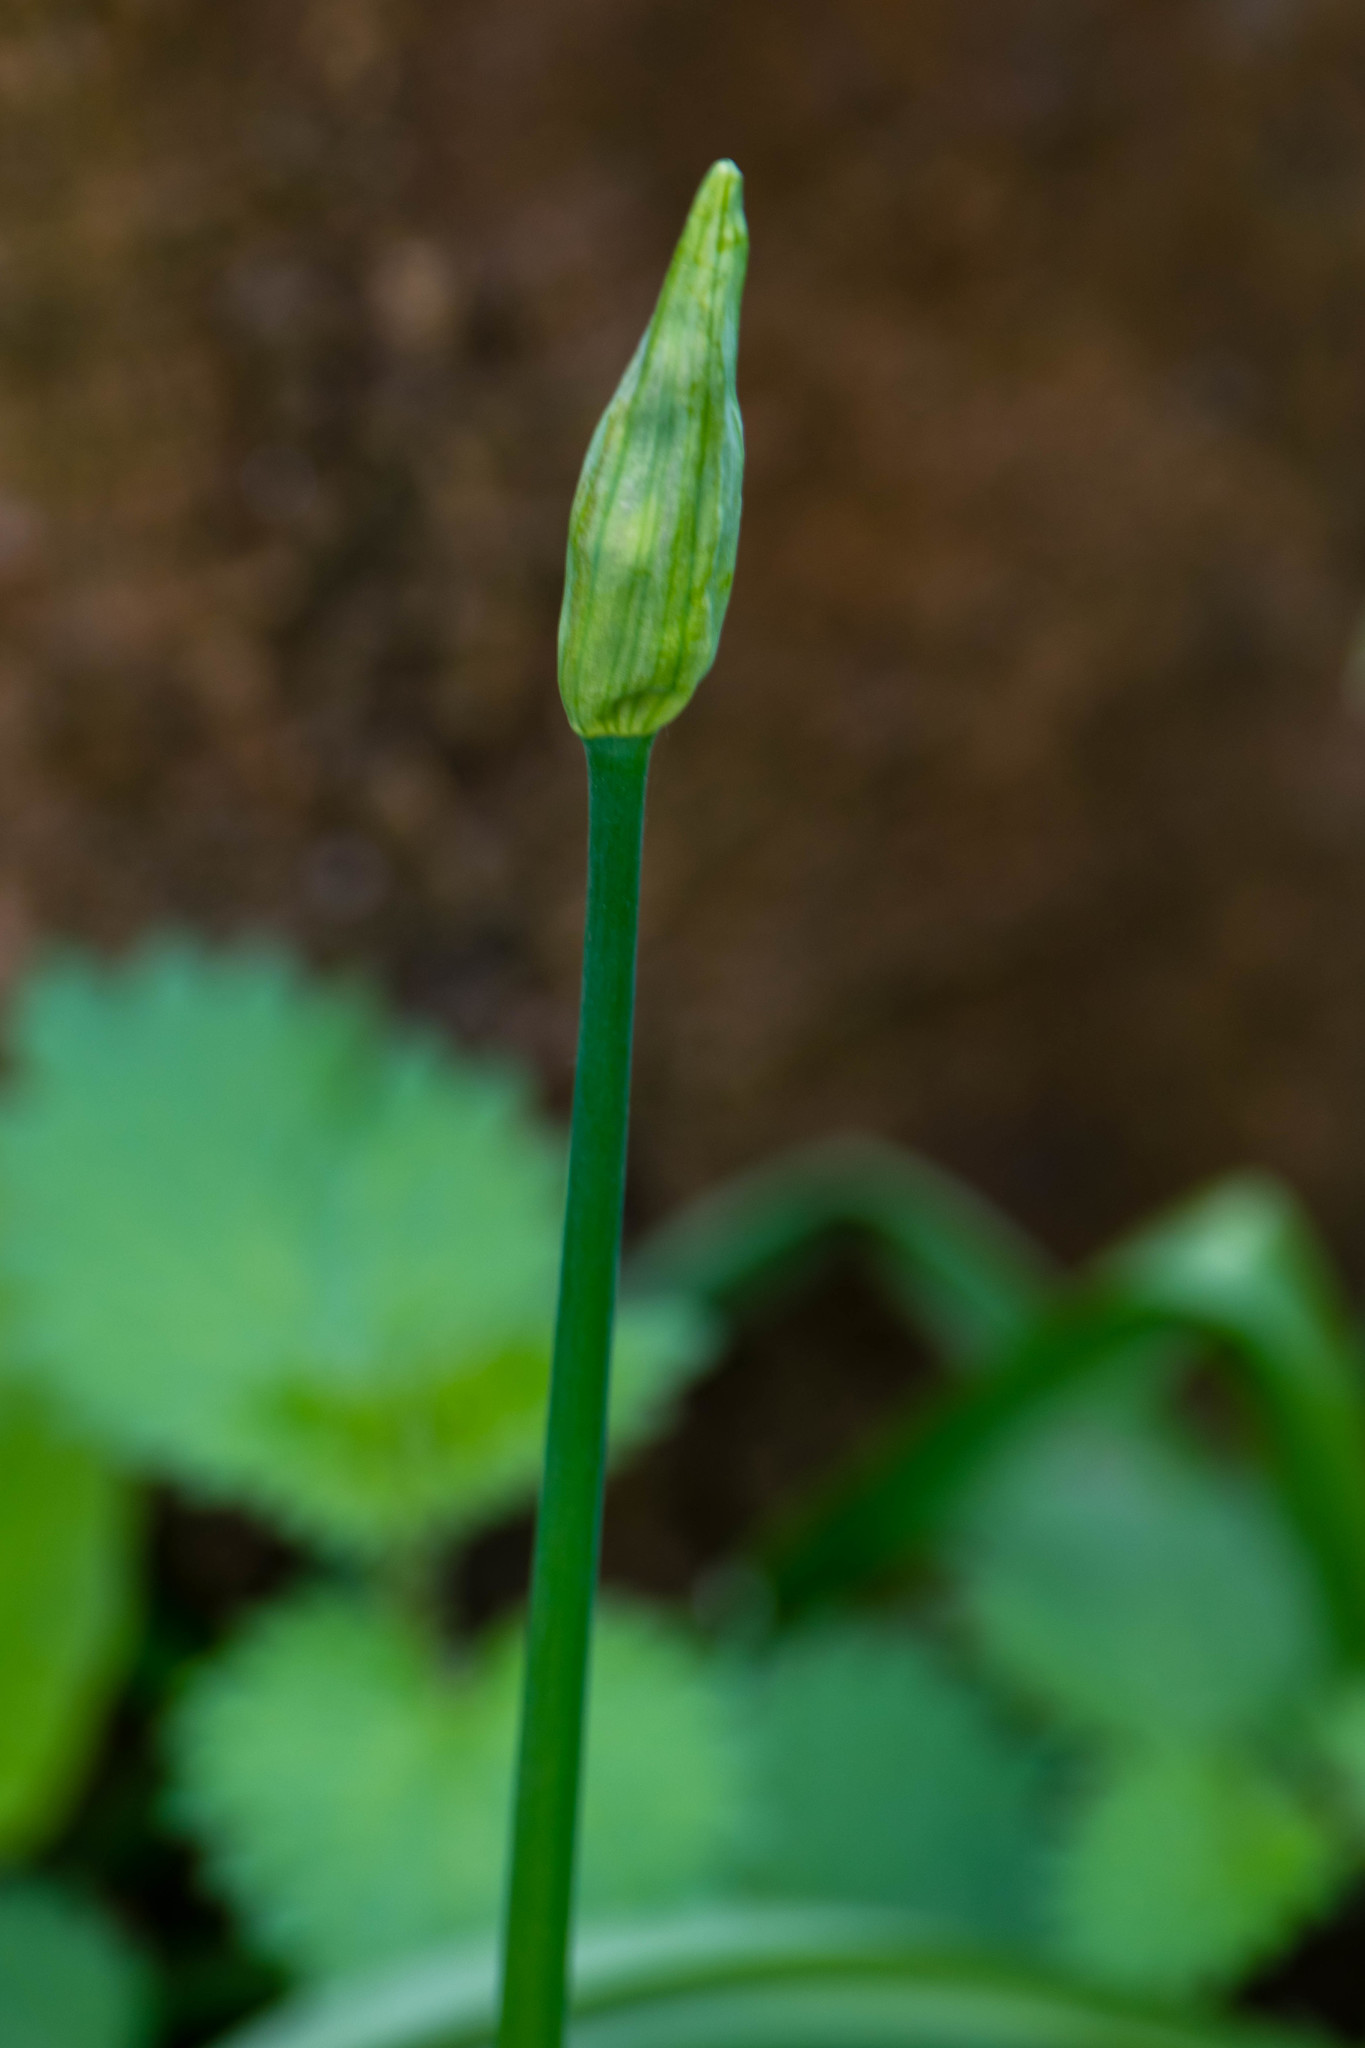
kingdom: Plantae
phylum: Tracheophyta
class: Liliopsida
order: Asparagales
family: Amaryllidaceae
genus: Allium
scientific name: Allium ursinum
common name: Ramsons
